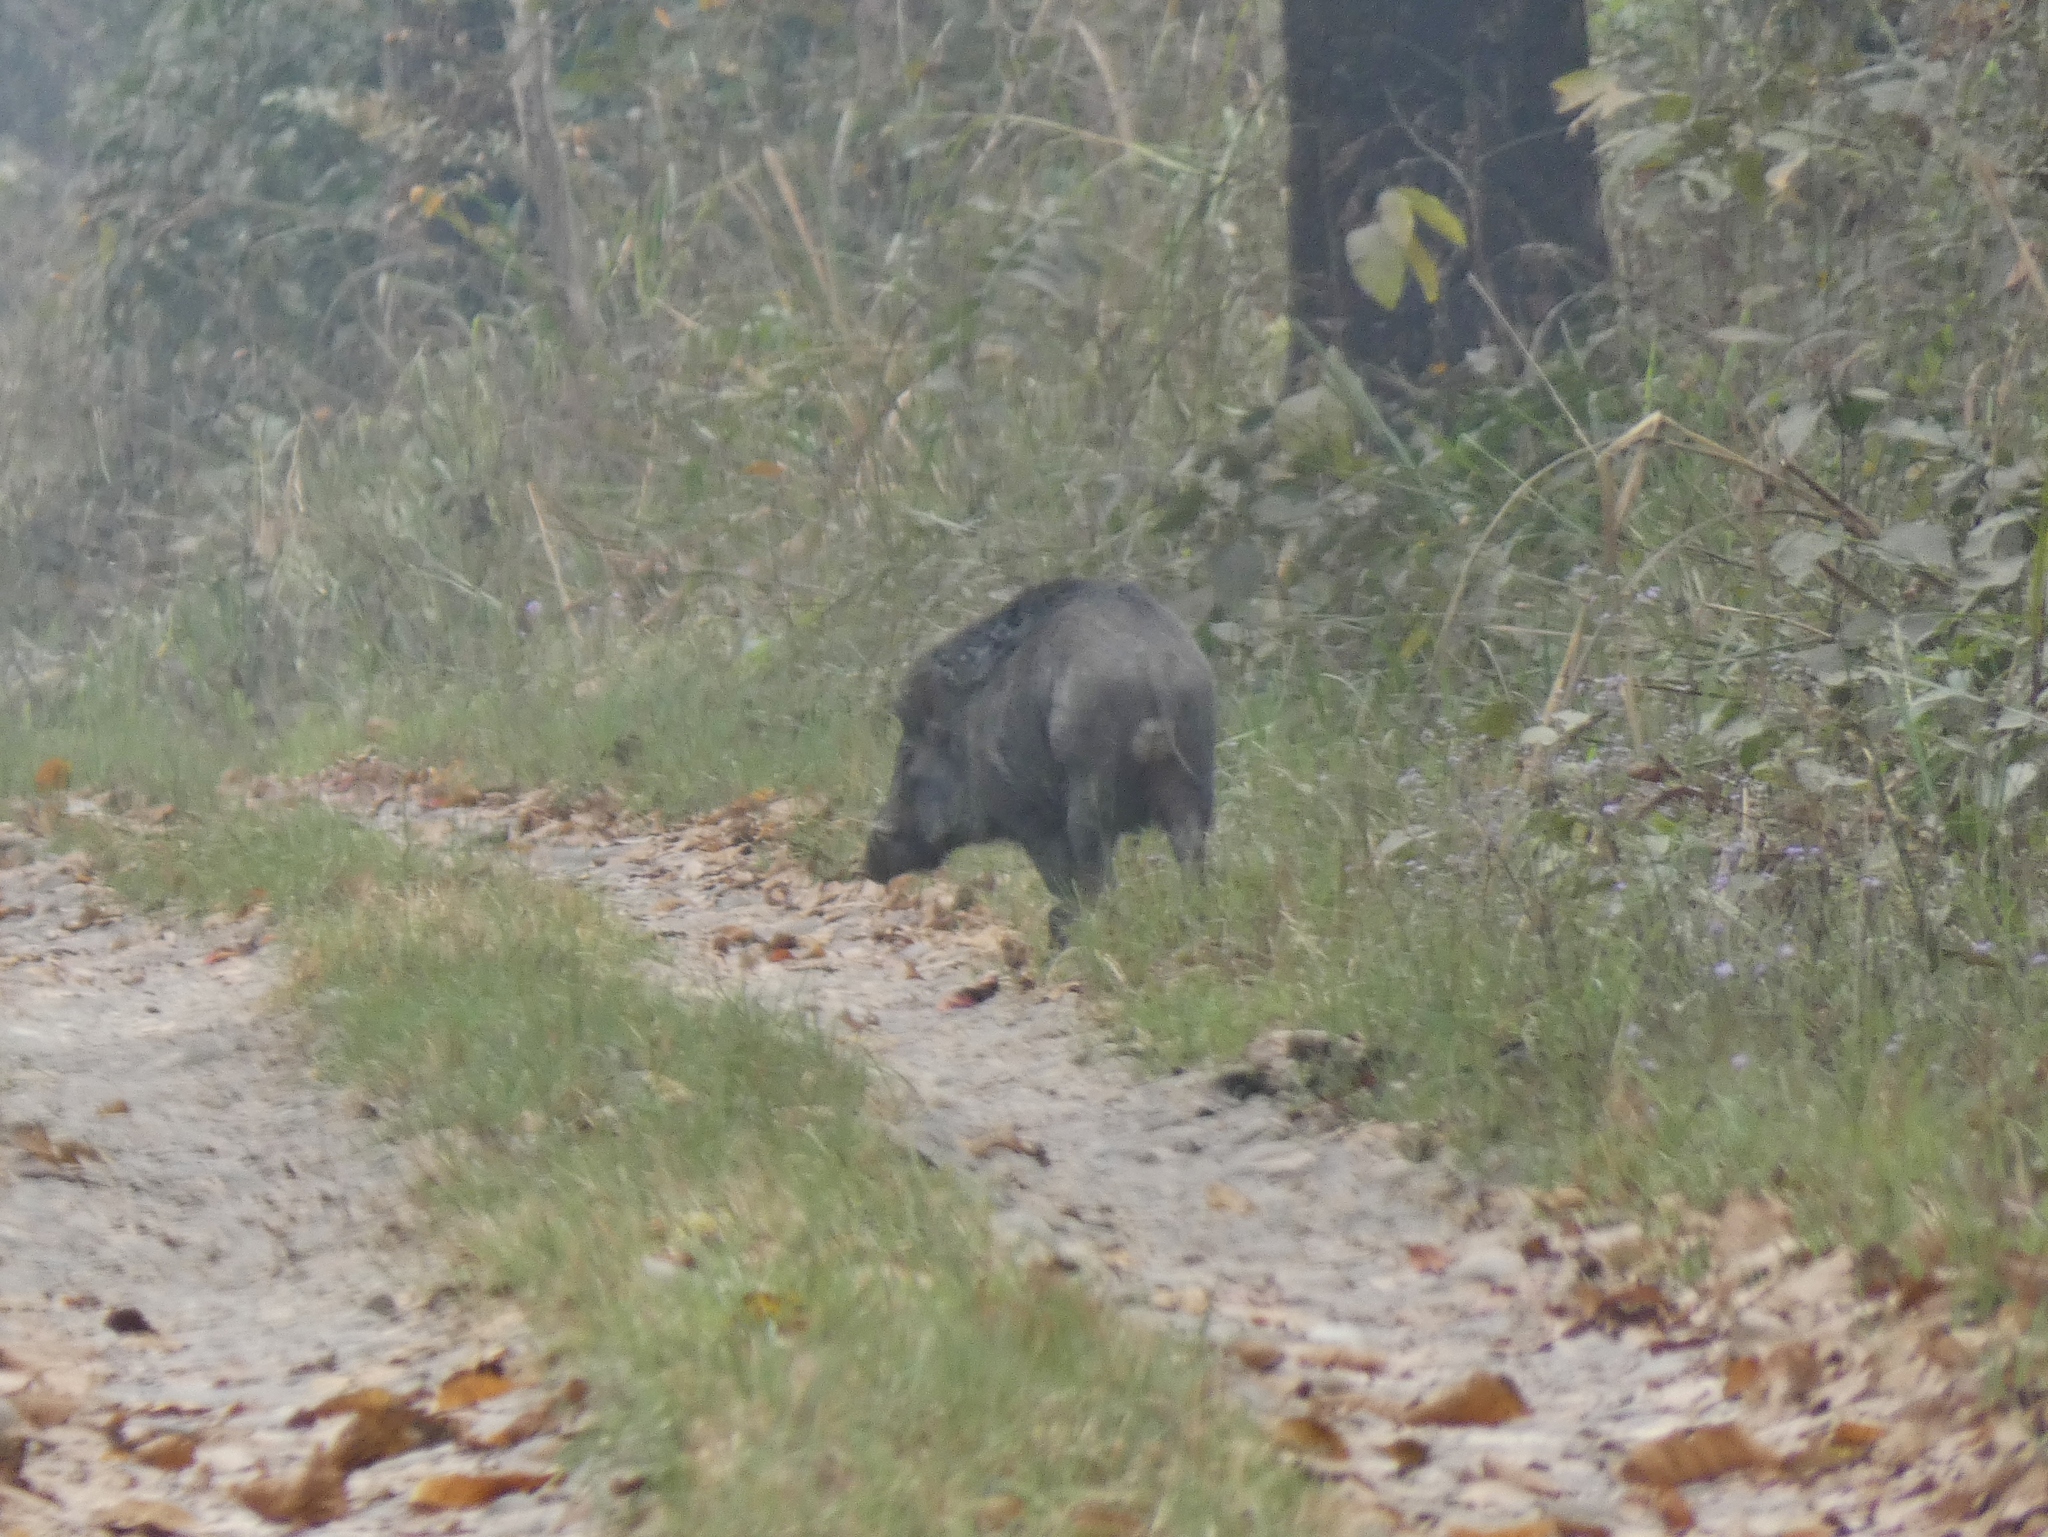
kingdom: Animalia
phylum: Chordata
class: Mammalia
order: Artiodactyla
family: Suidae
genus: Sus
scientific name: Sus scrofa
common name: Wild boar
